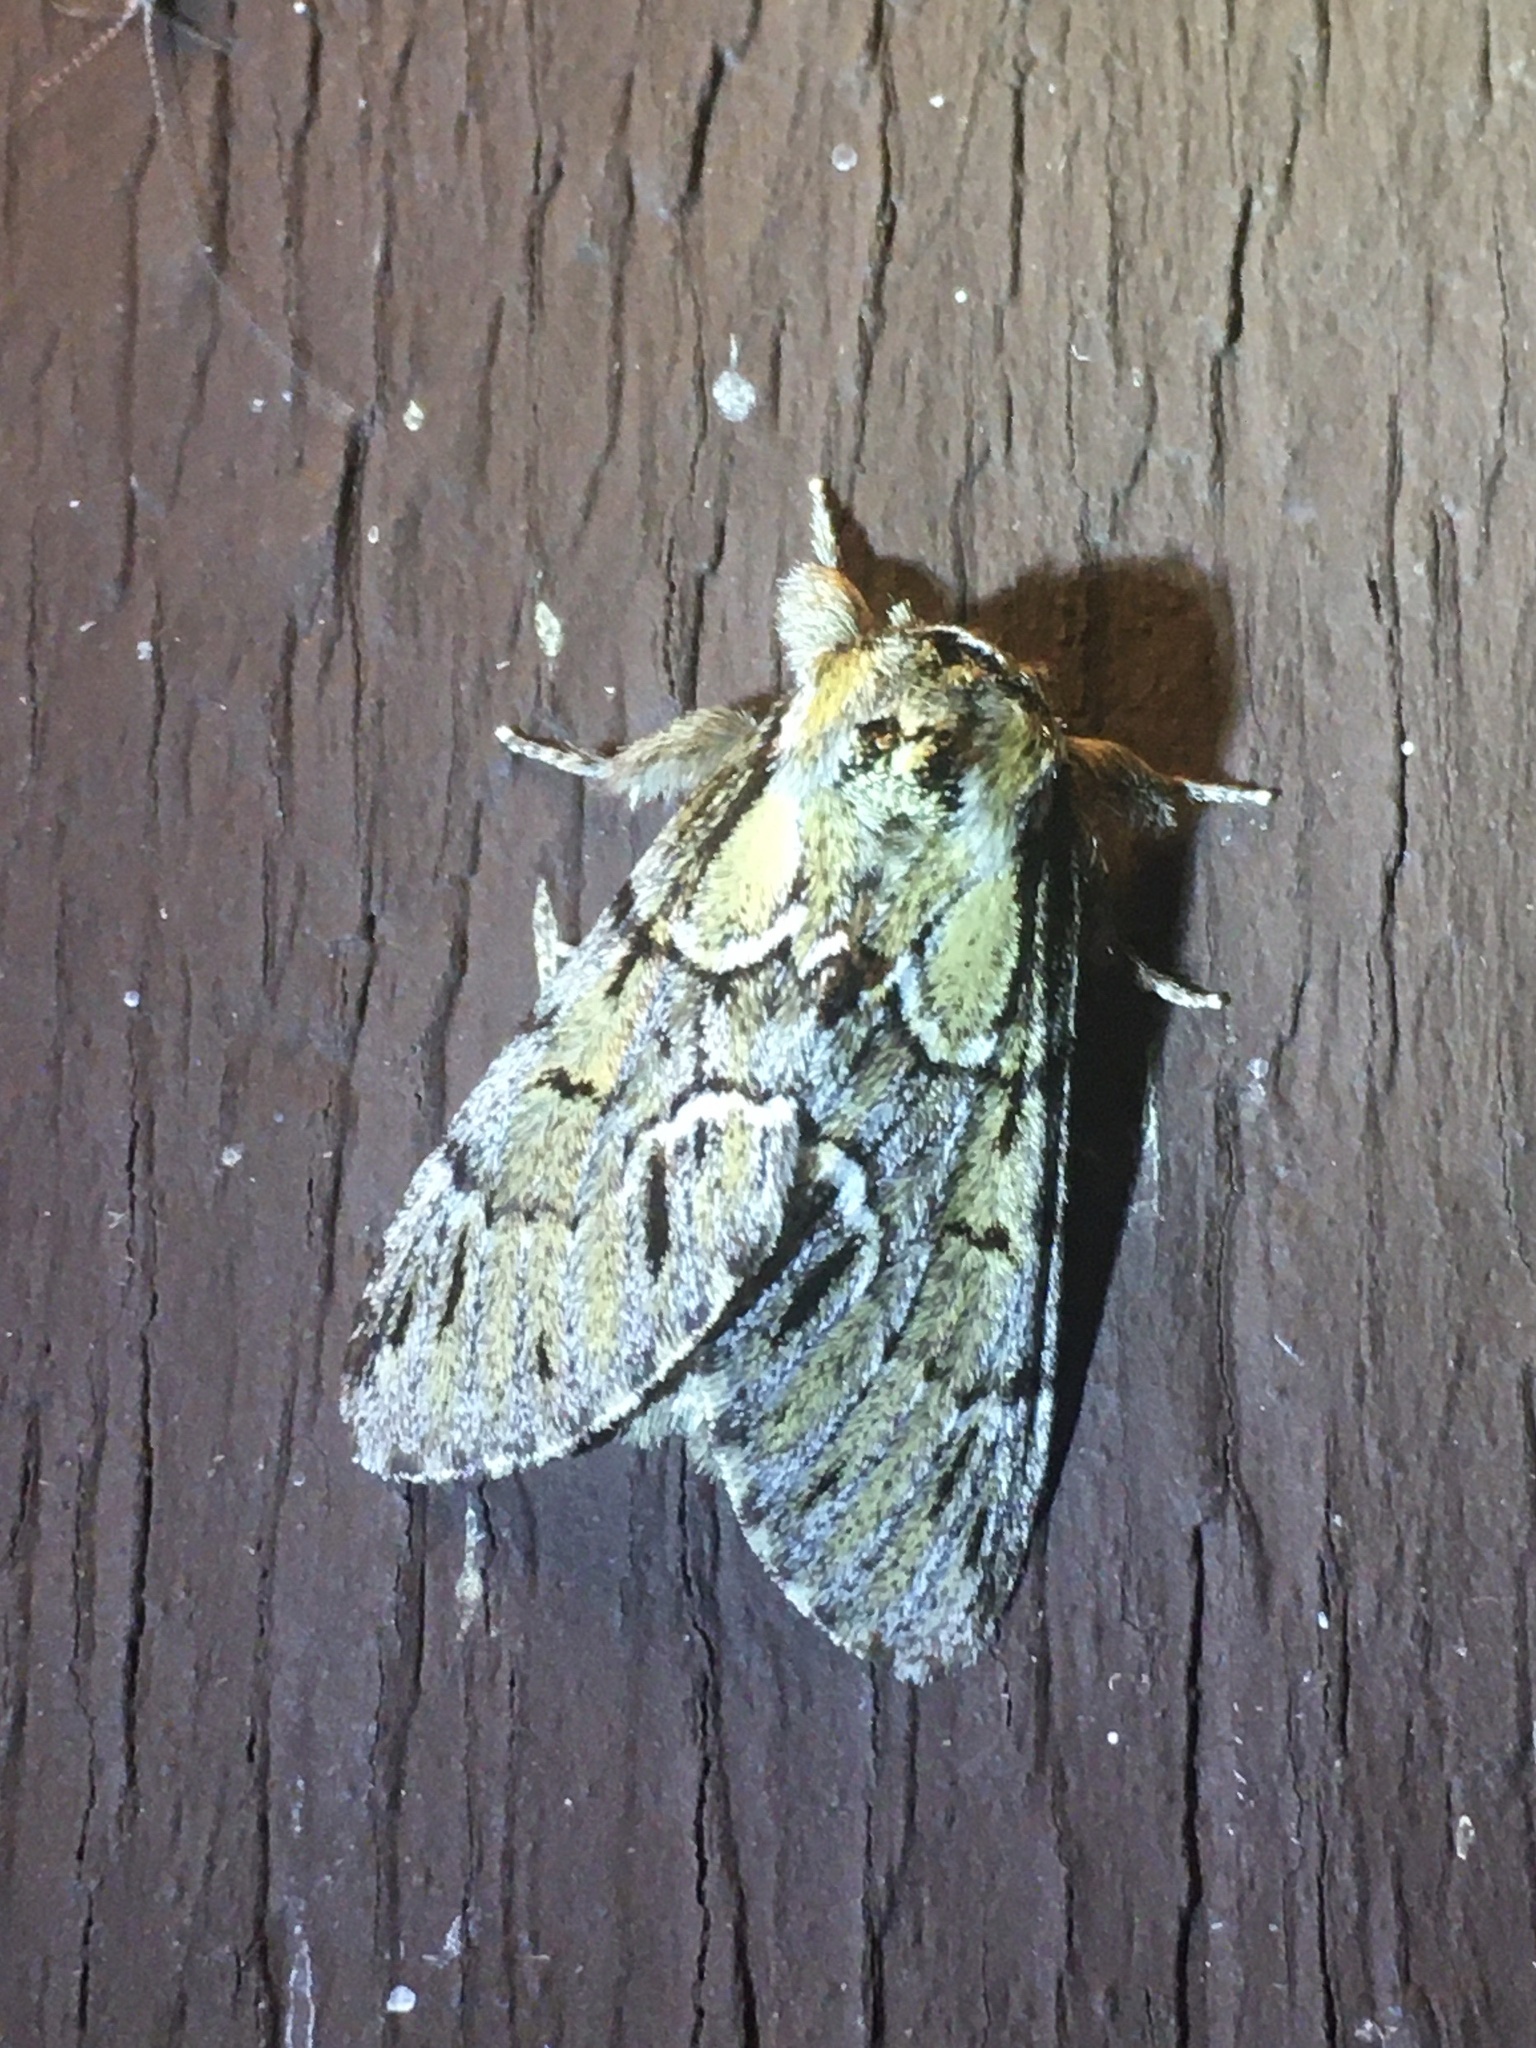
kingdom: Animalia
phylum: Arthropoda
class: Insecta
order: Lepidoptera
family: Notodontidae
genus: Paraeschra
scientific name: Paraeschra georgica
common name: Georgian prominent
